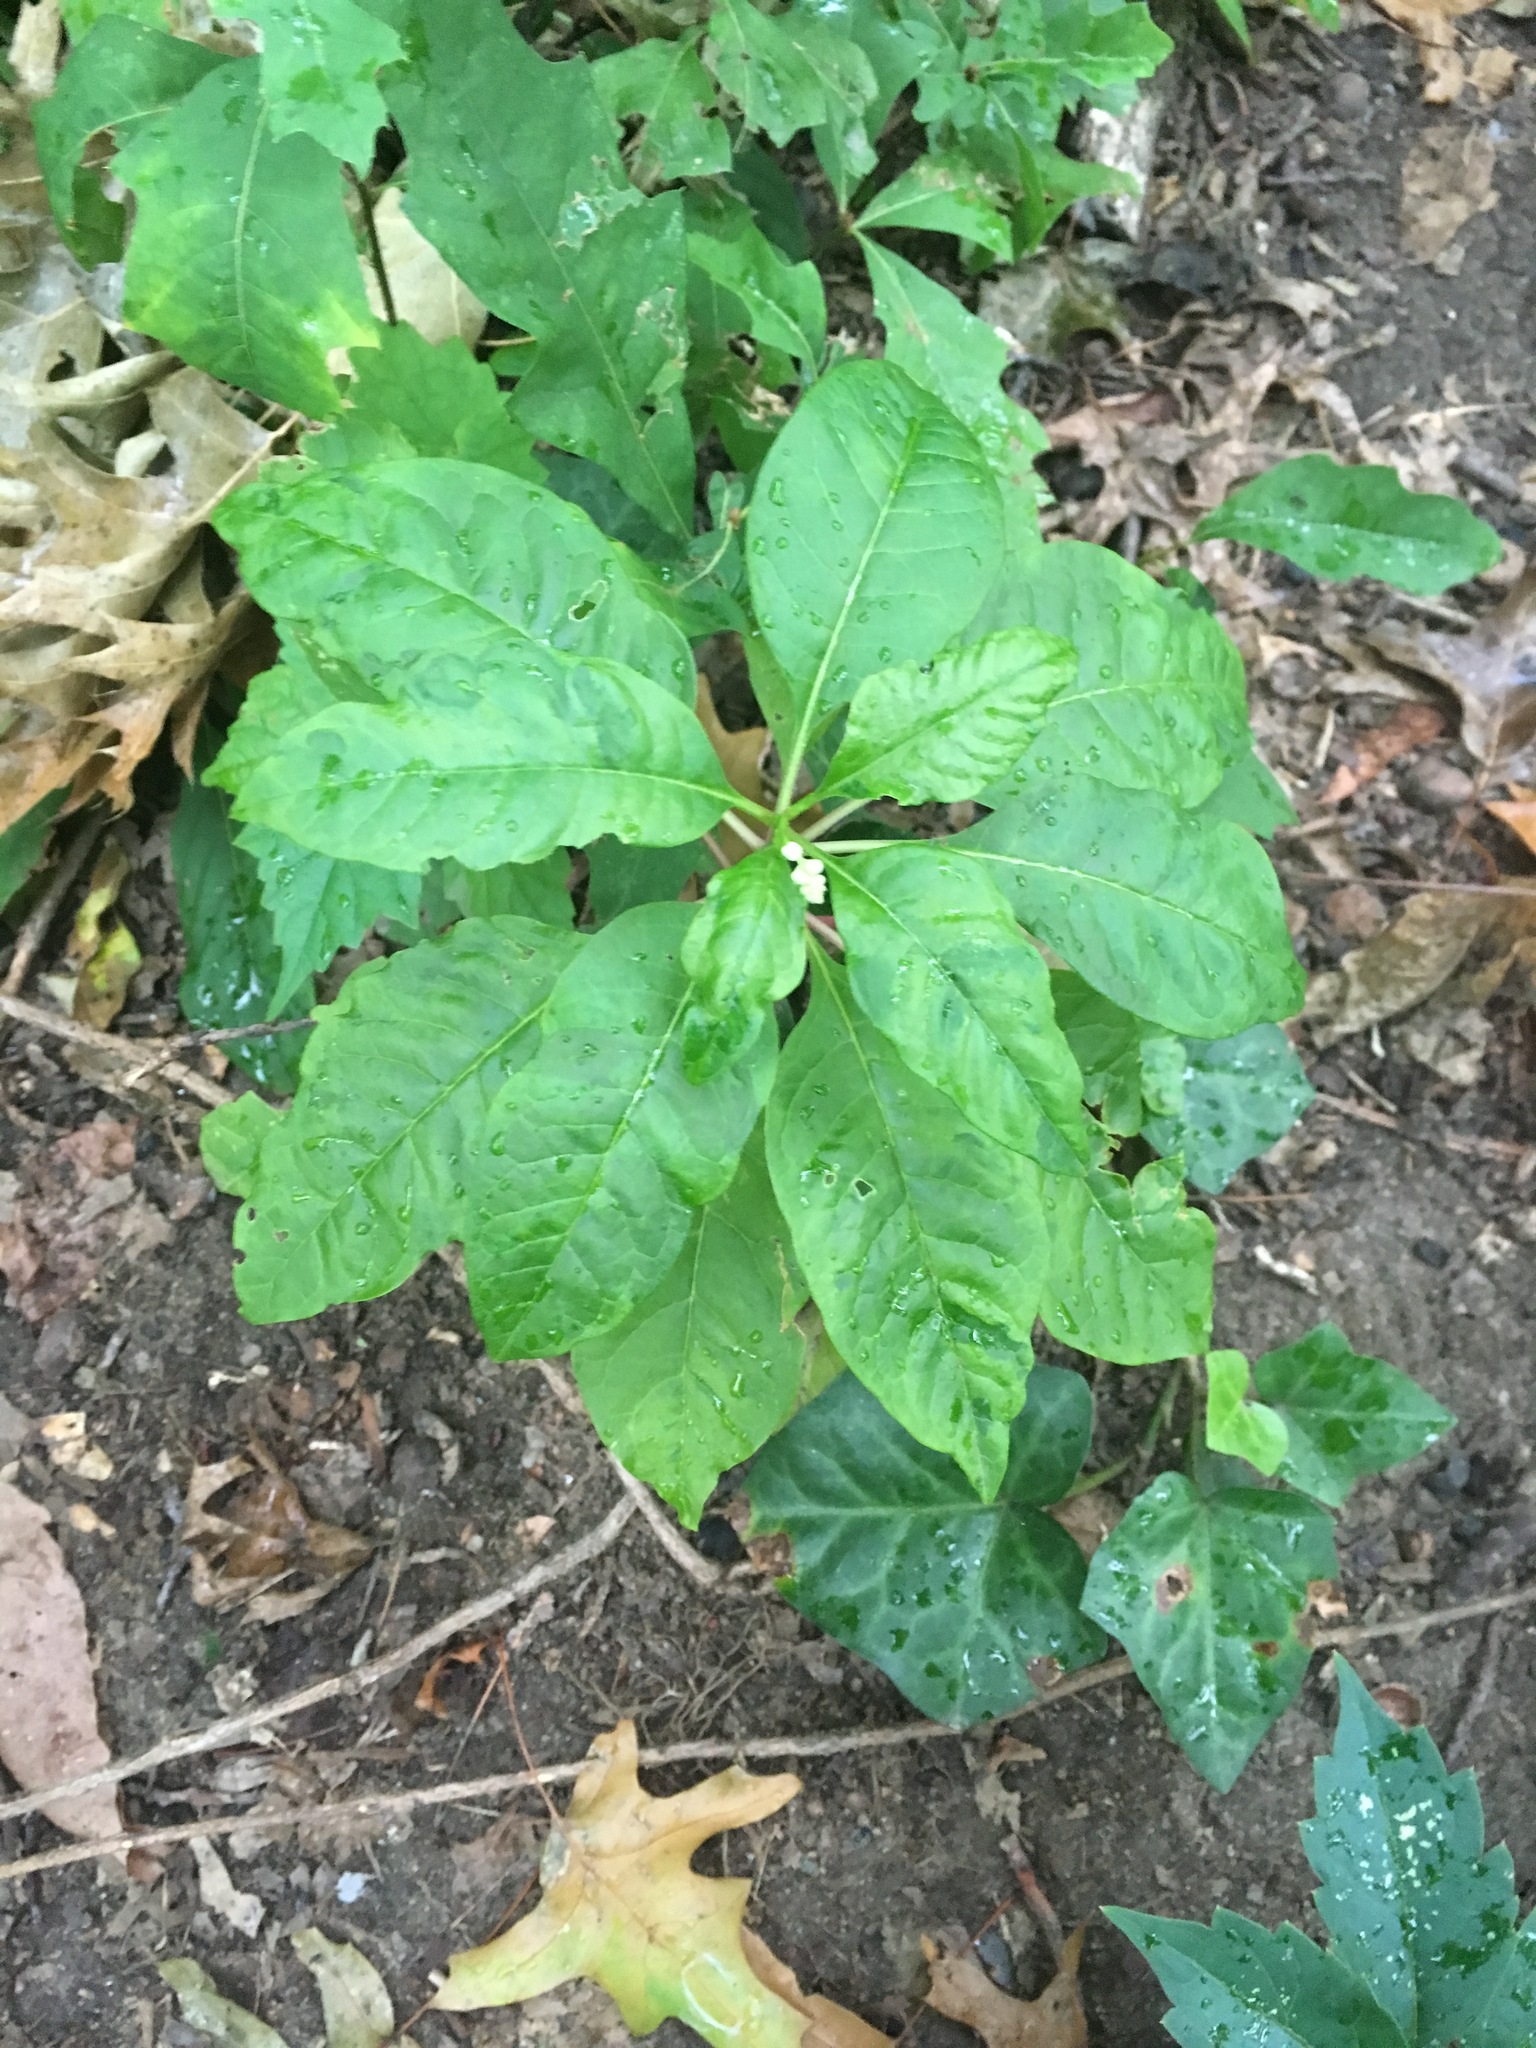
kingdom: Plantae
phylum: Tracheophyta
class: Magnoliopsida
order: Caryophyllales
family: Phytolaccaceae
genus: Phytolacca
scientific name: Phytolacca americana
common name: American pokeweed
